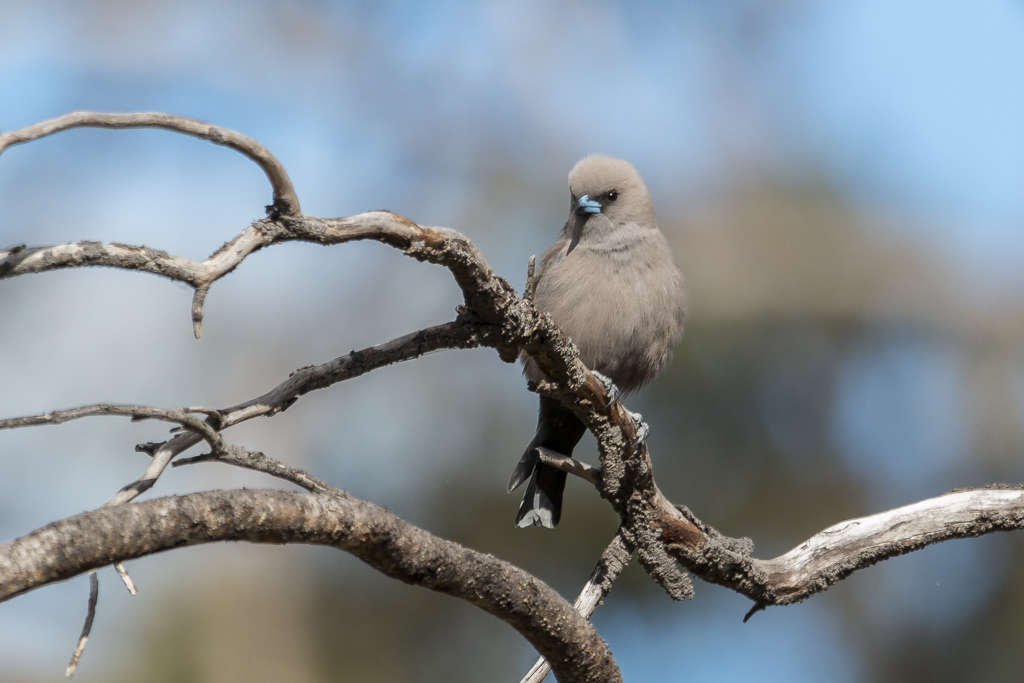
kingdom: Animalia
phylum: Chordata
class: Aves
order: Passeriformes
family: Artamidae
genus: Artamus
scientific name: Artamus cyanopterus
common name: Dusky woodswallow
